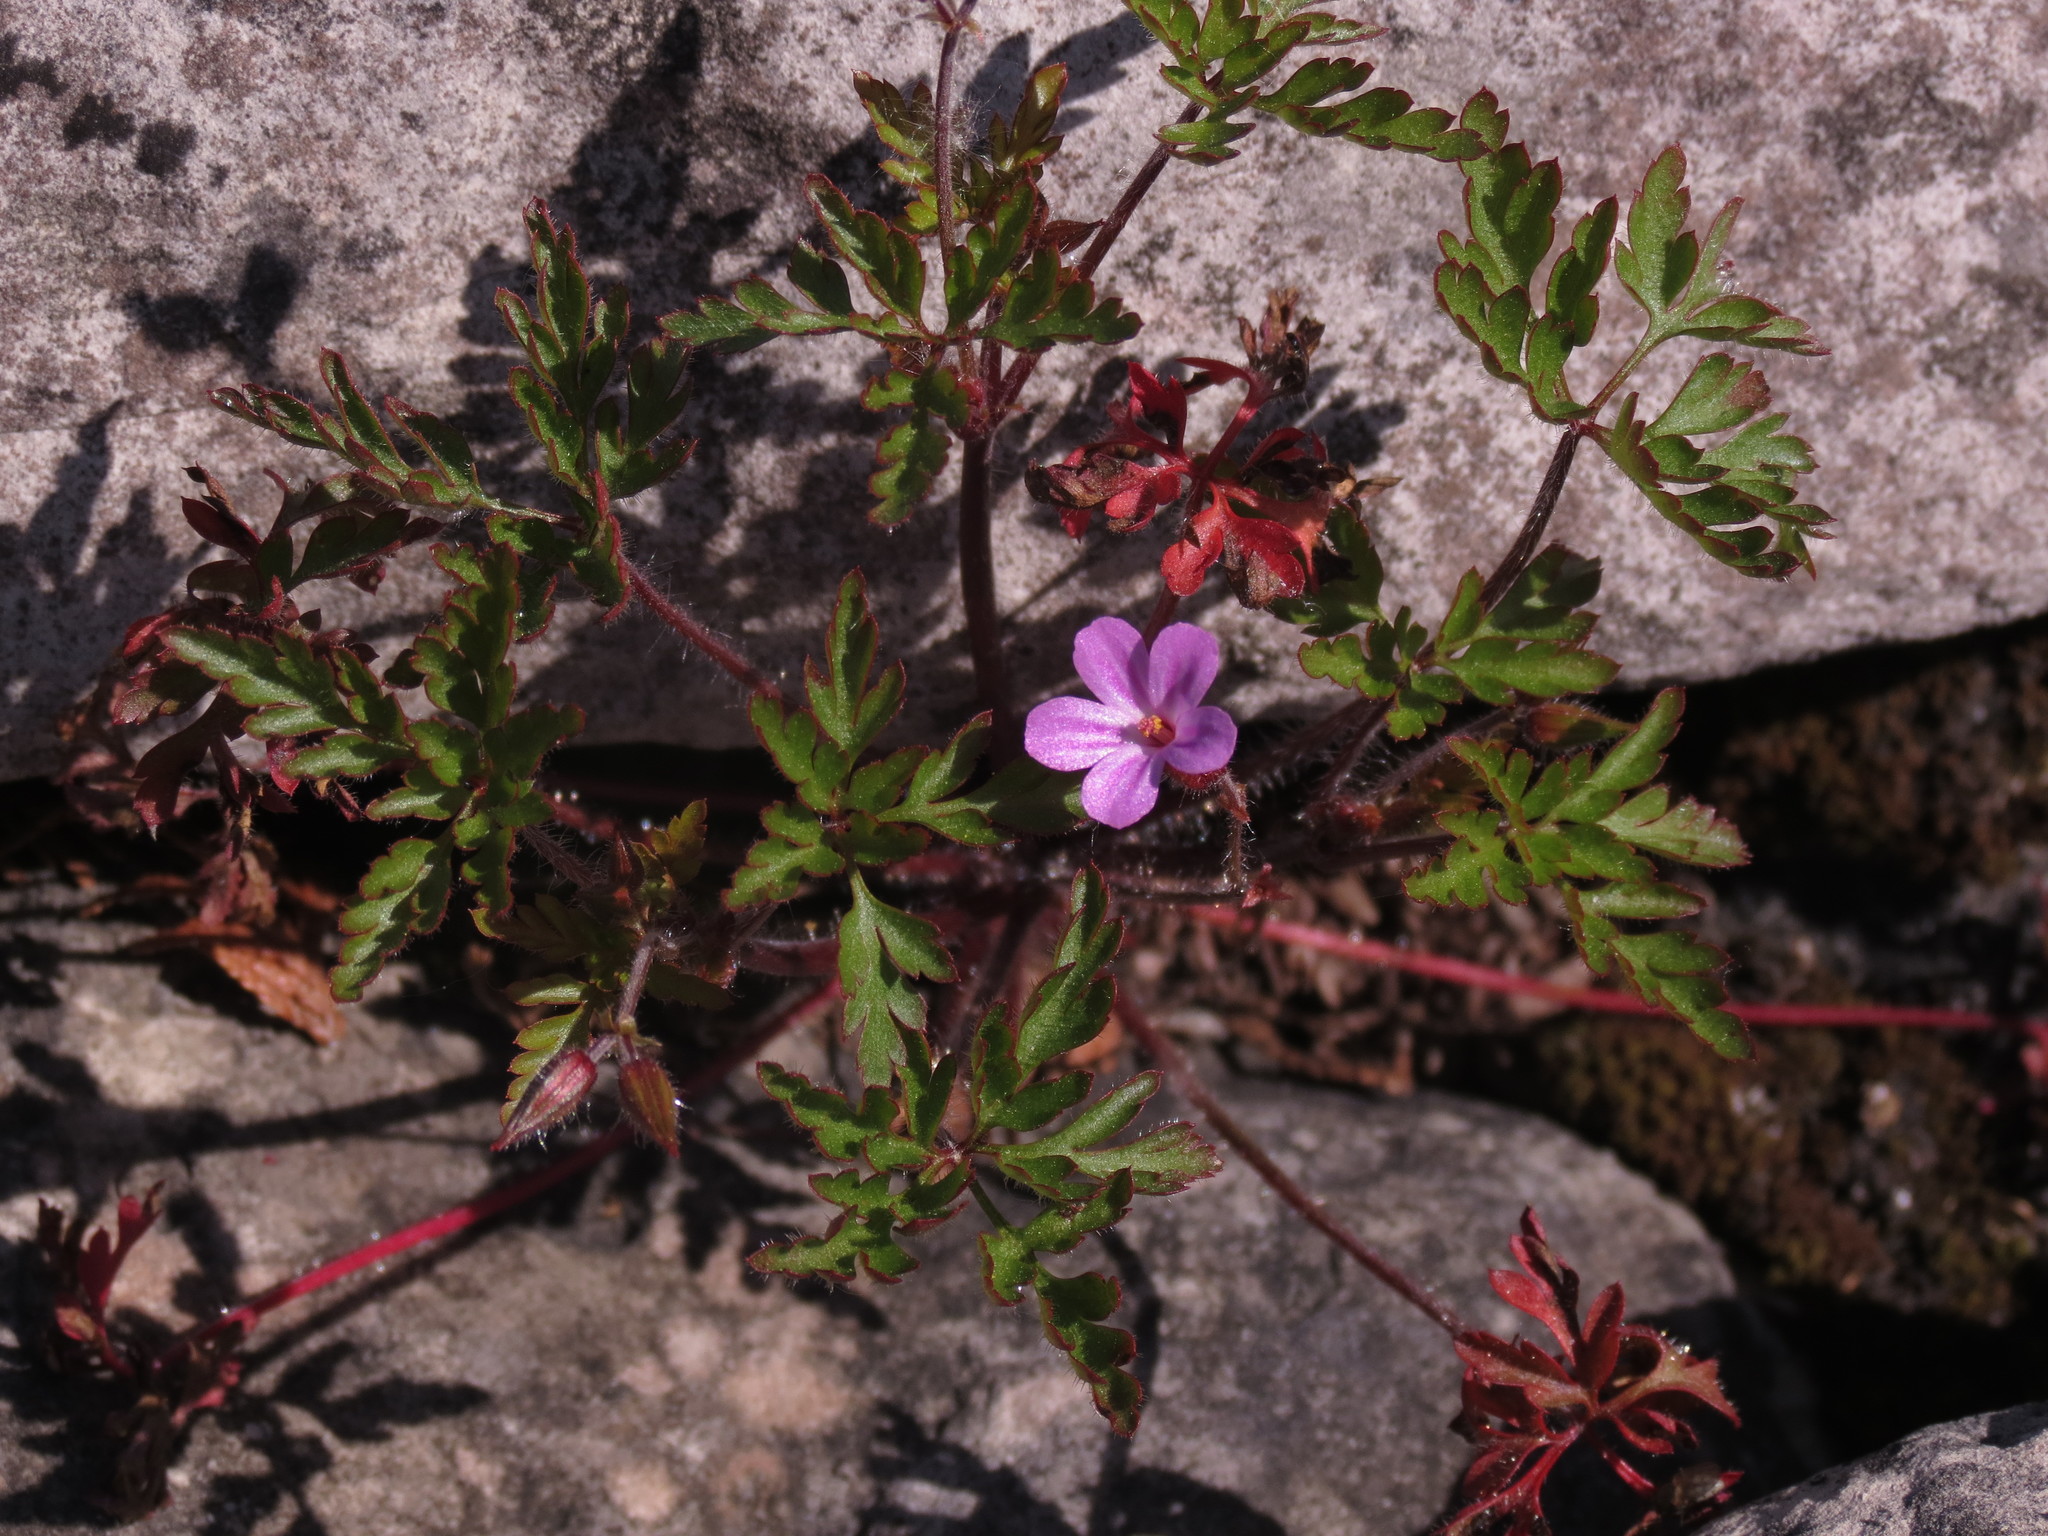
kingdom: Plantae
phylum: Tracheophyta
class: Magnoliopsida
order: Geraniales
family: Geraniaceae
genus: Geranium
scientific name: Geranium robertianum
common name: Herb-robert
